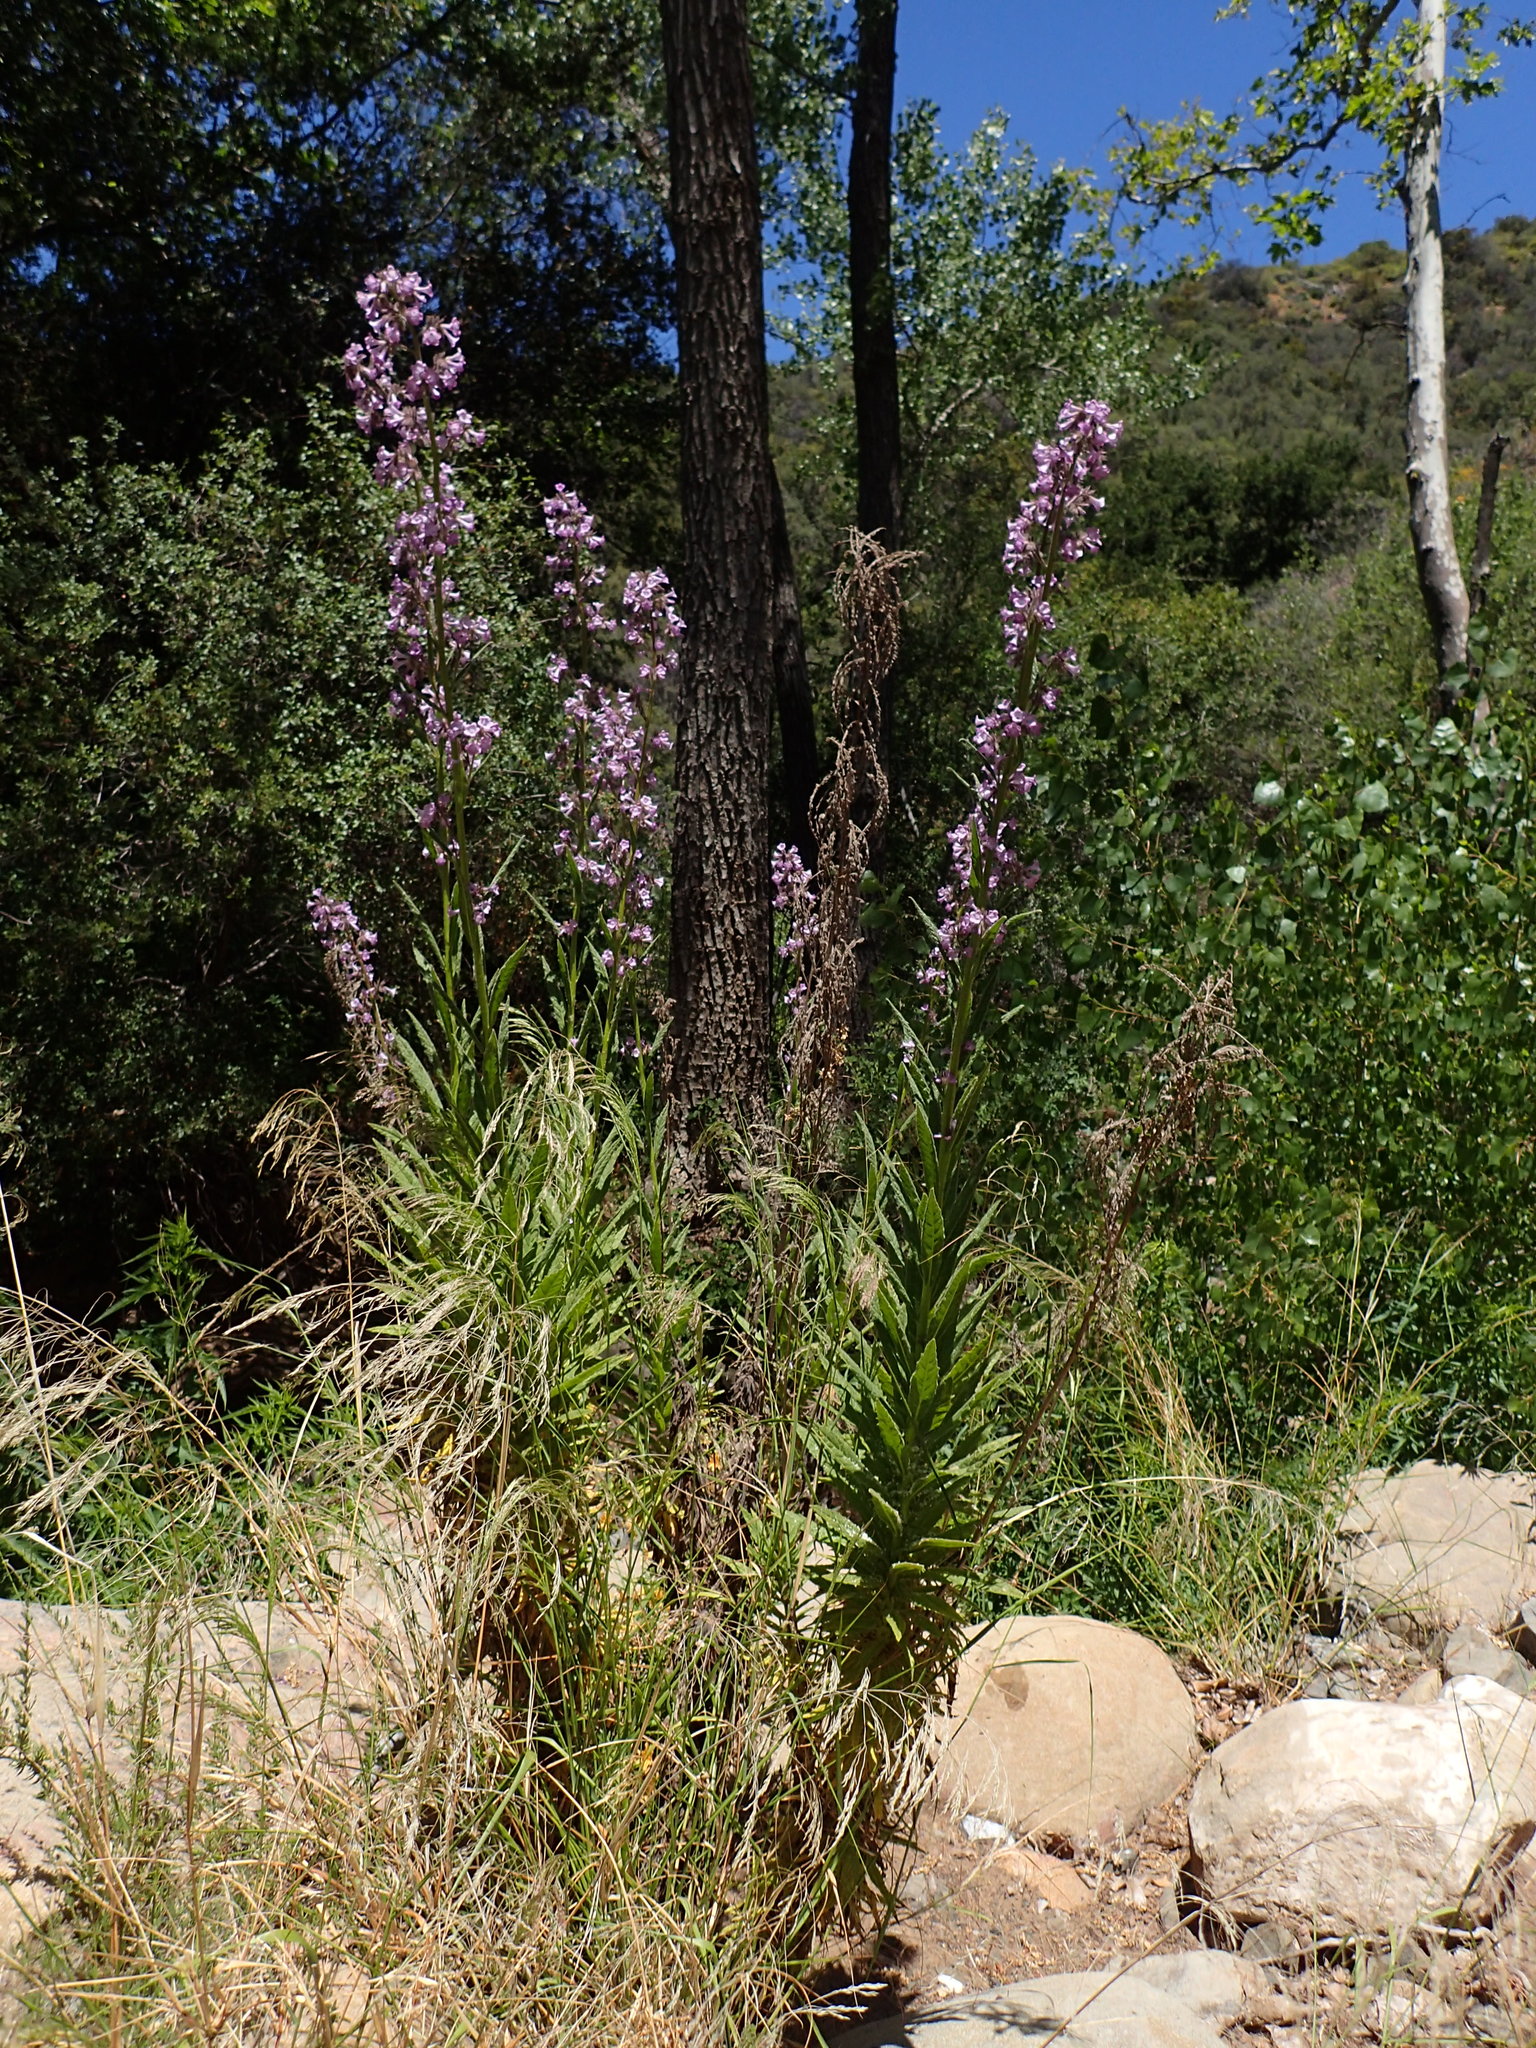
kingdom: Plantae
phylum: Tracheophyta
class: Magnoliopsida
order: Boraginales
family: Namaceae
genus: Turricula
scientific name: Turricula parryi
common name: Poodle-dog-bush
